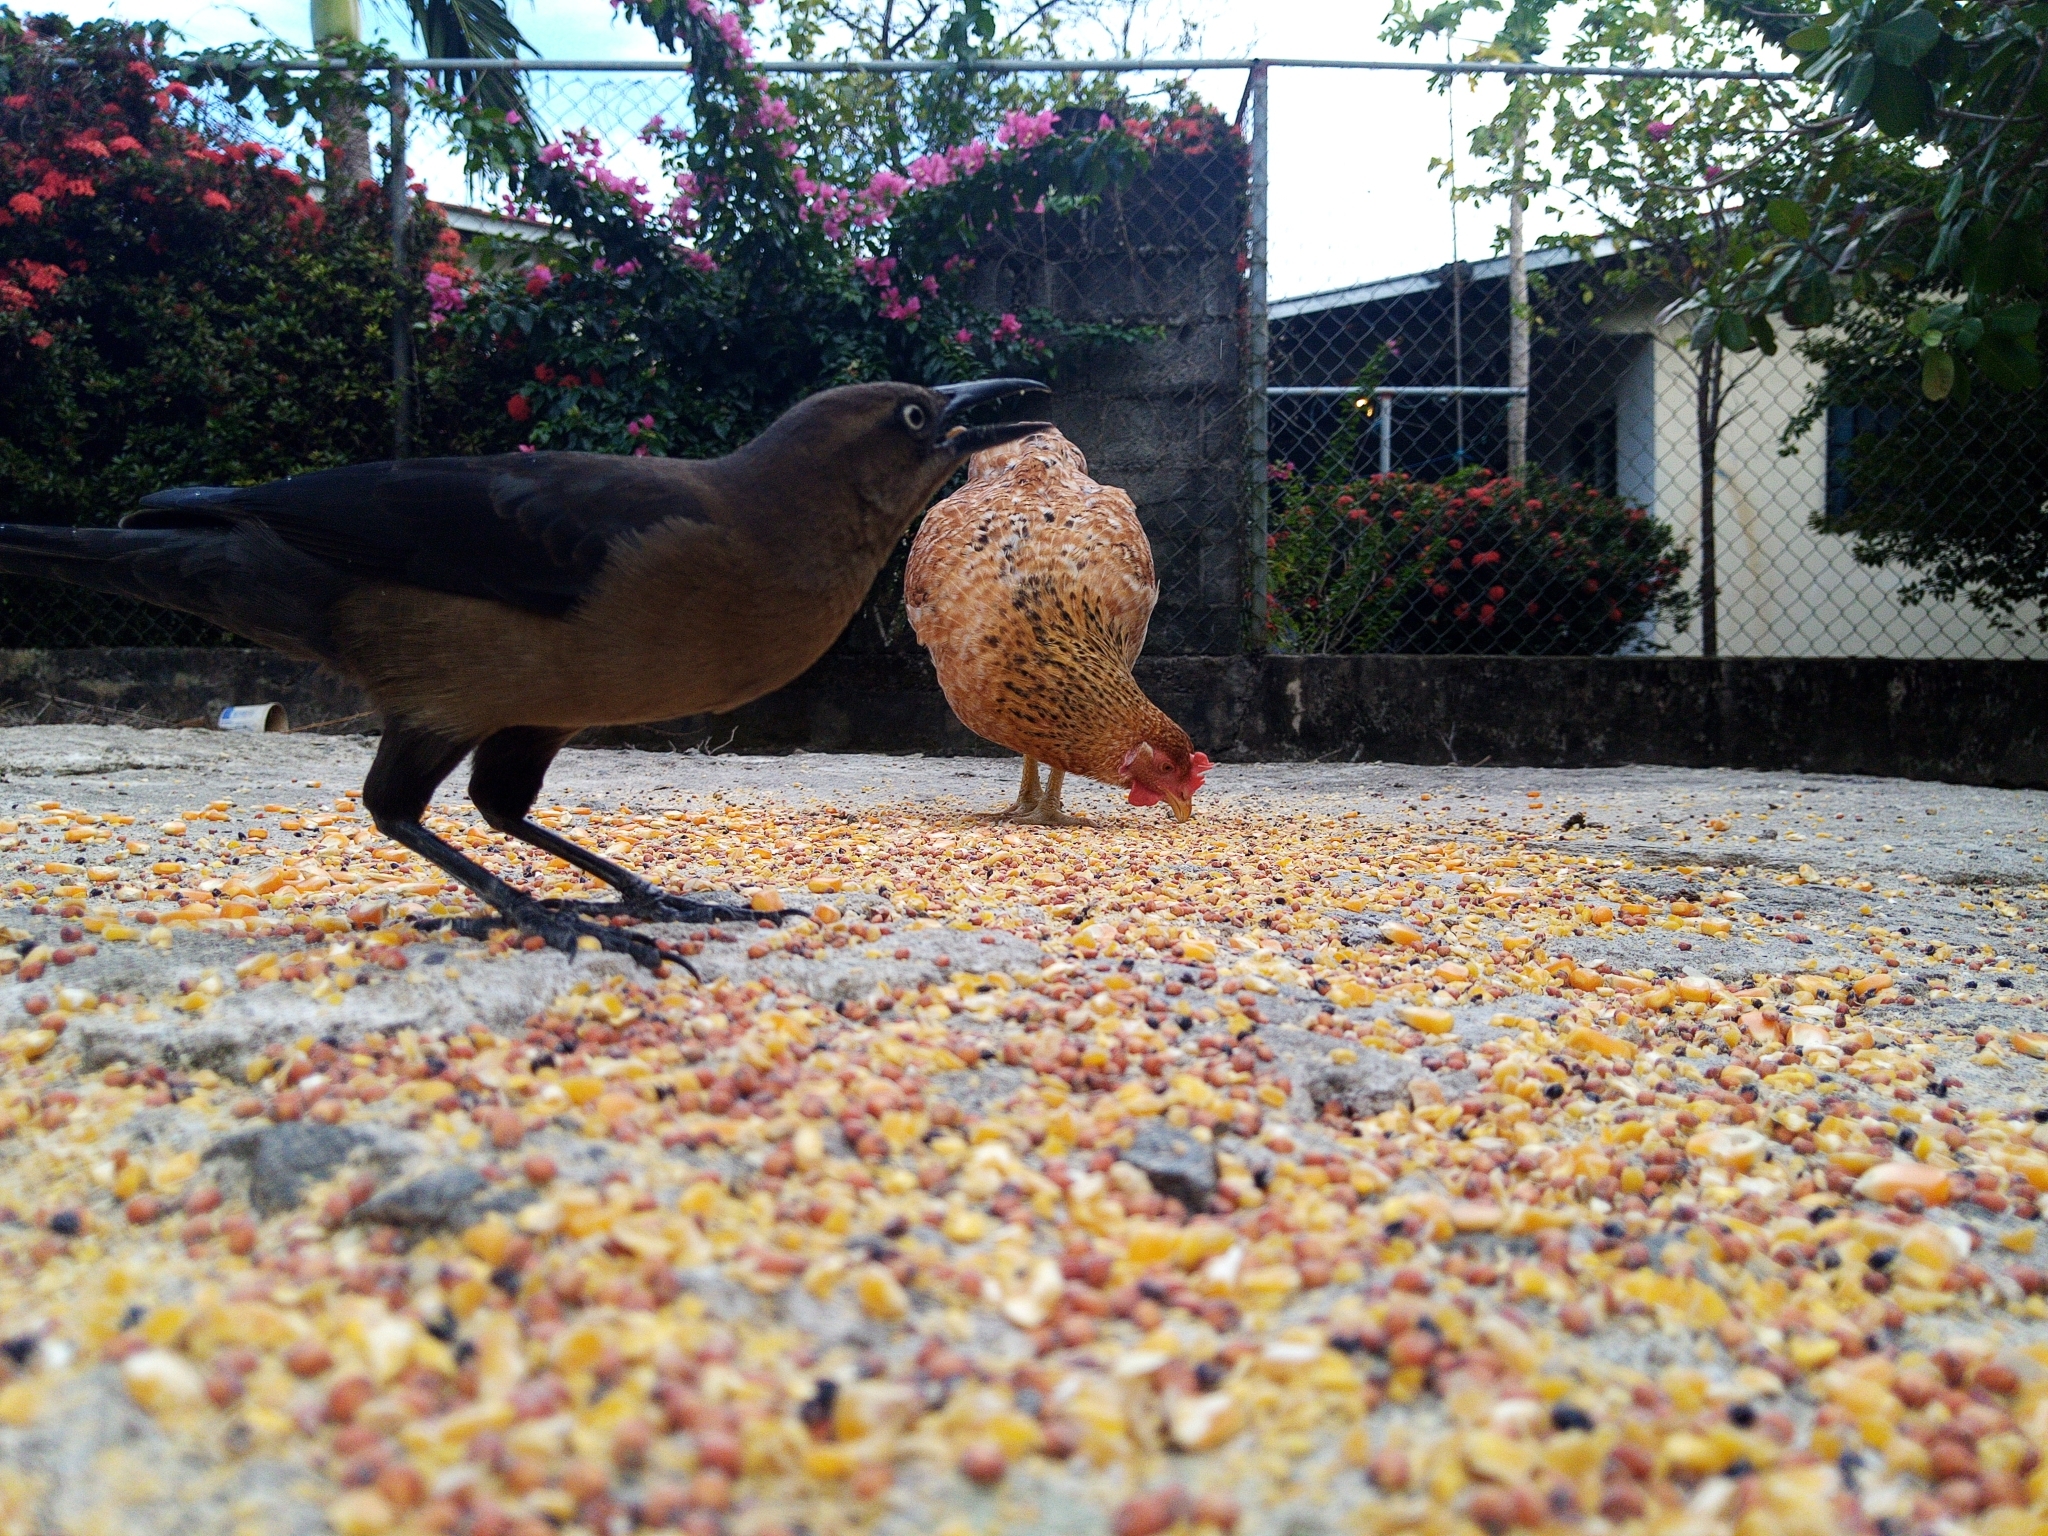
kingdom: Animalia
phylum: Chordata
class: Aves
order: Passeriformes
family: Icteridae
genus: Quiscalus
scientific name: Quiscalus mexicanus
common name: Great-tailed grackle
